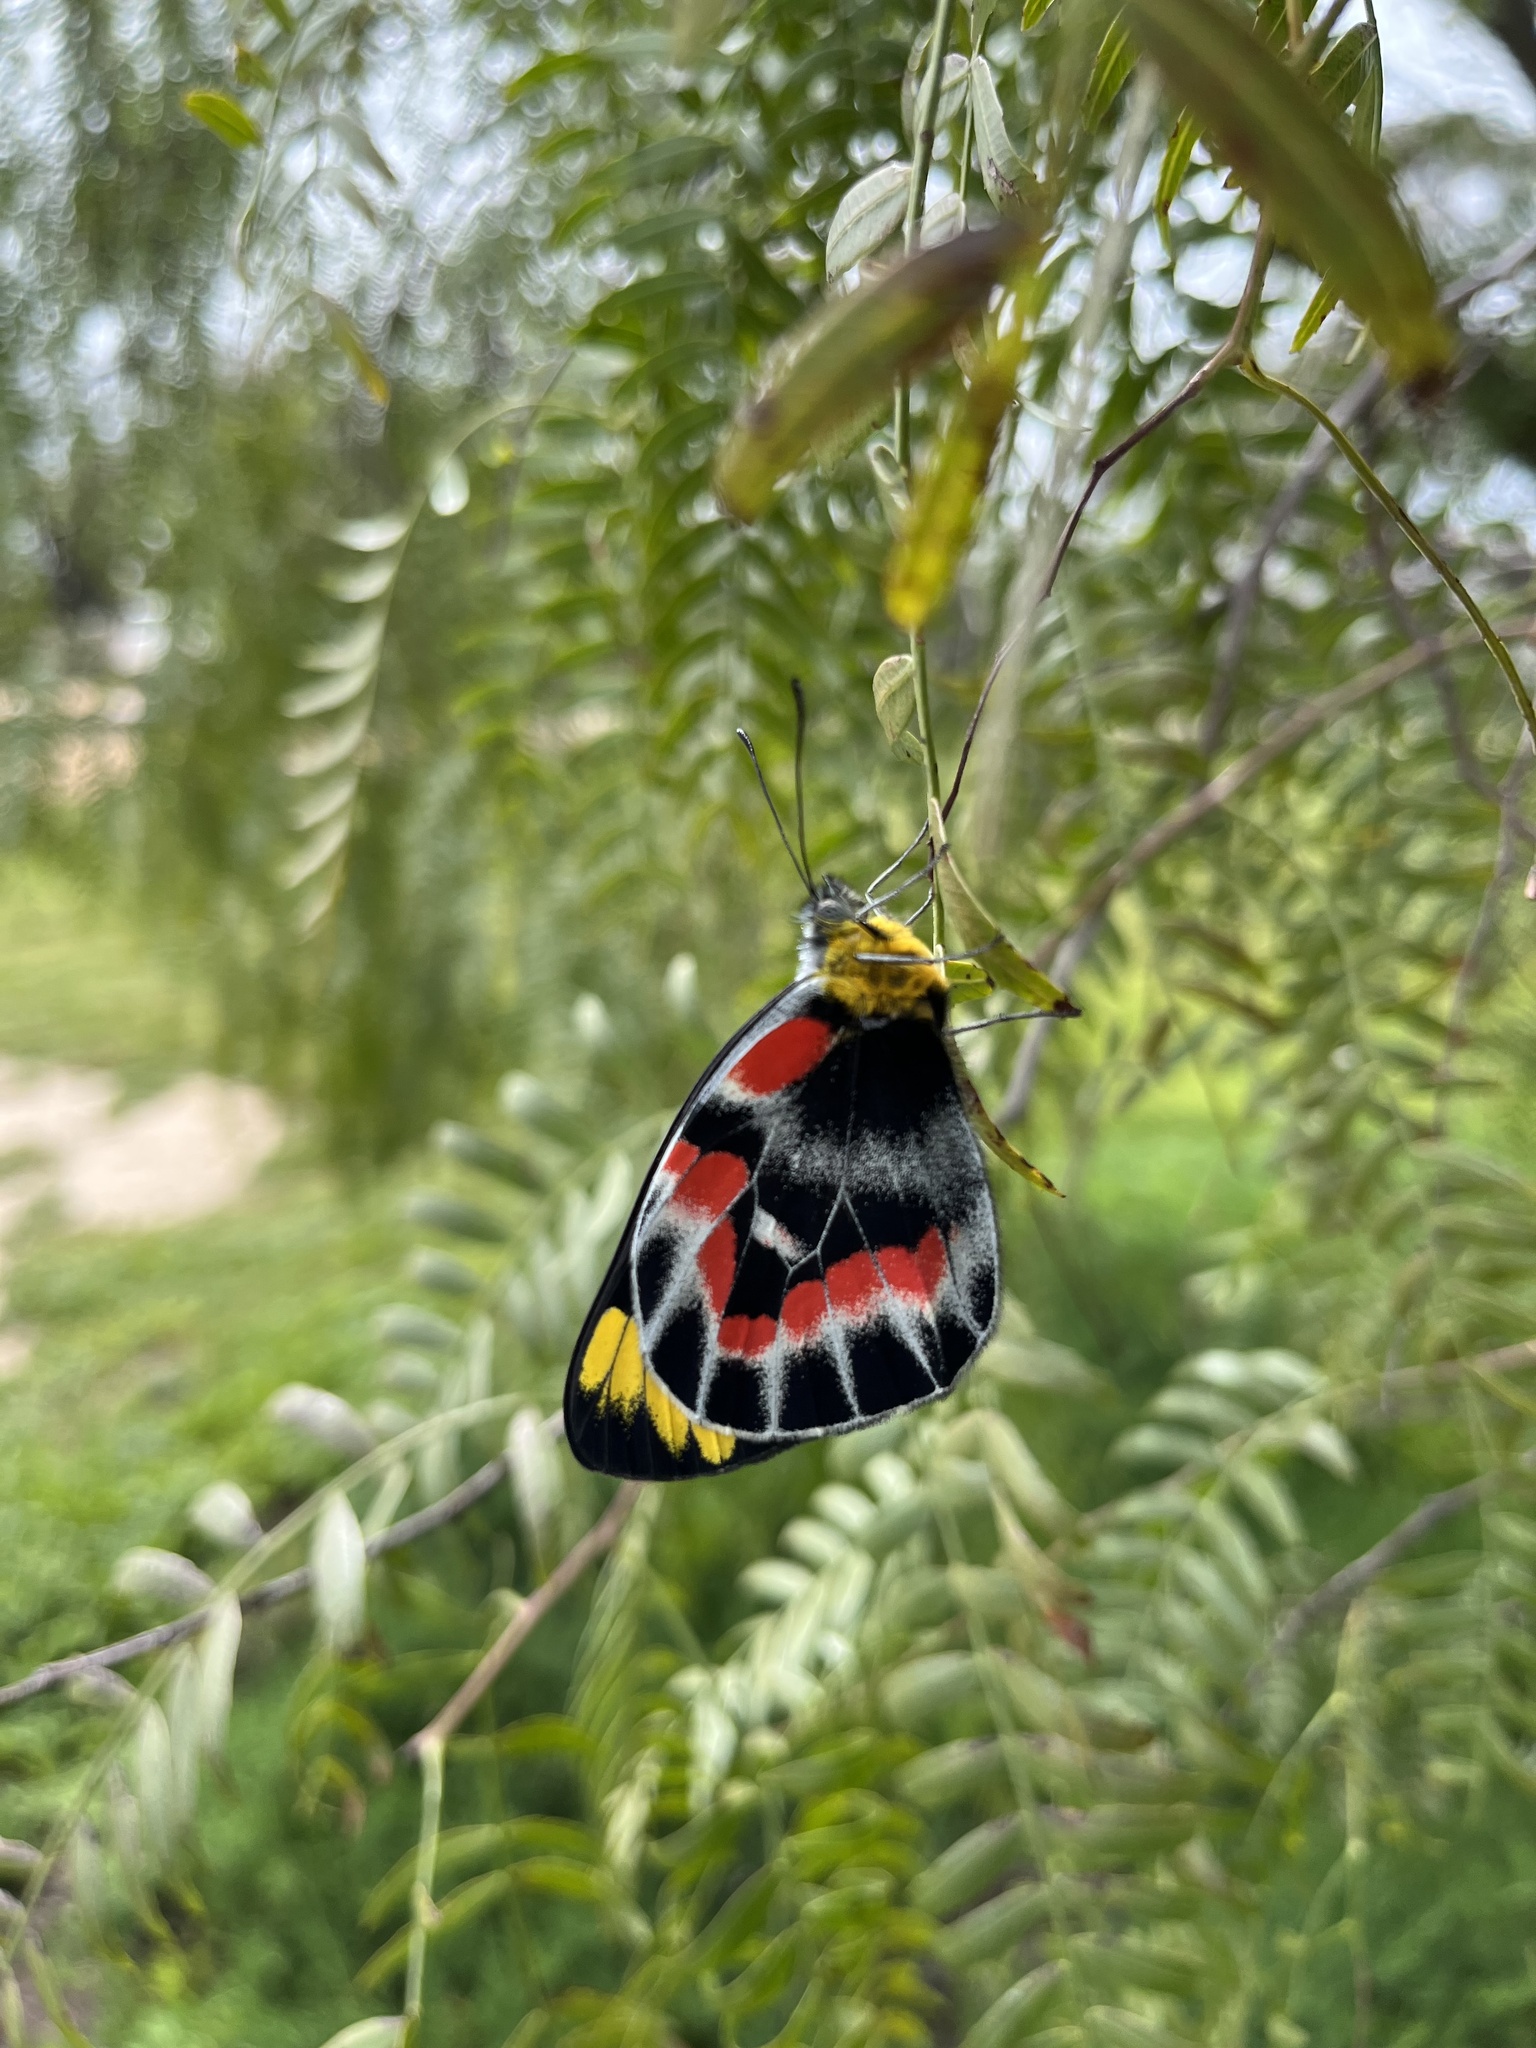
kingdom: Animalia
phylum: Arthropoda
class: Insecta
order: Lepidoptera
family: Pieridae
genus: Delias
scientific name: Delias harpalyce
